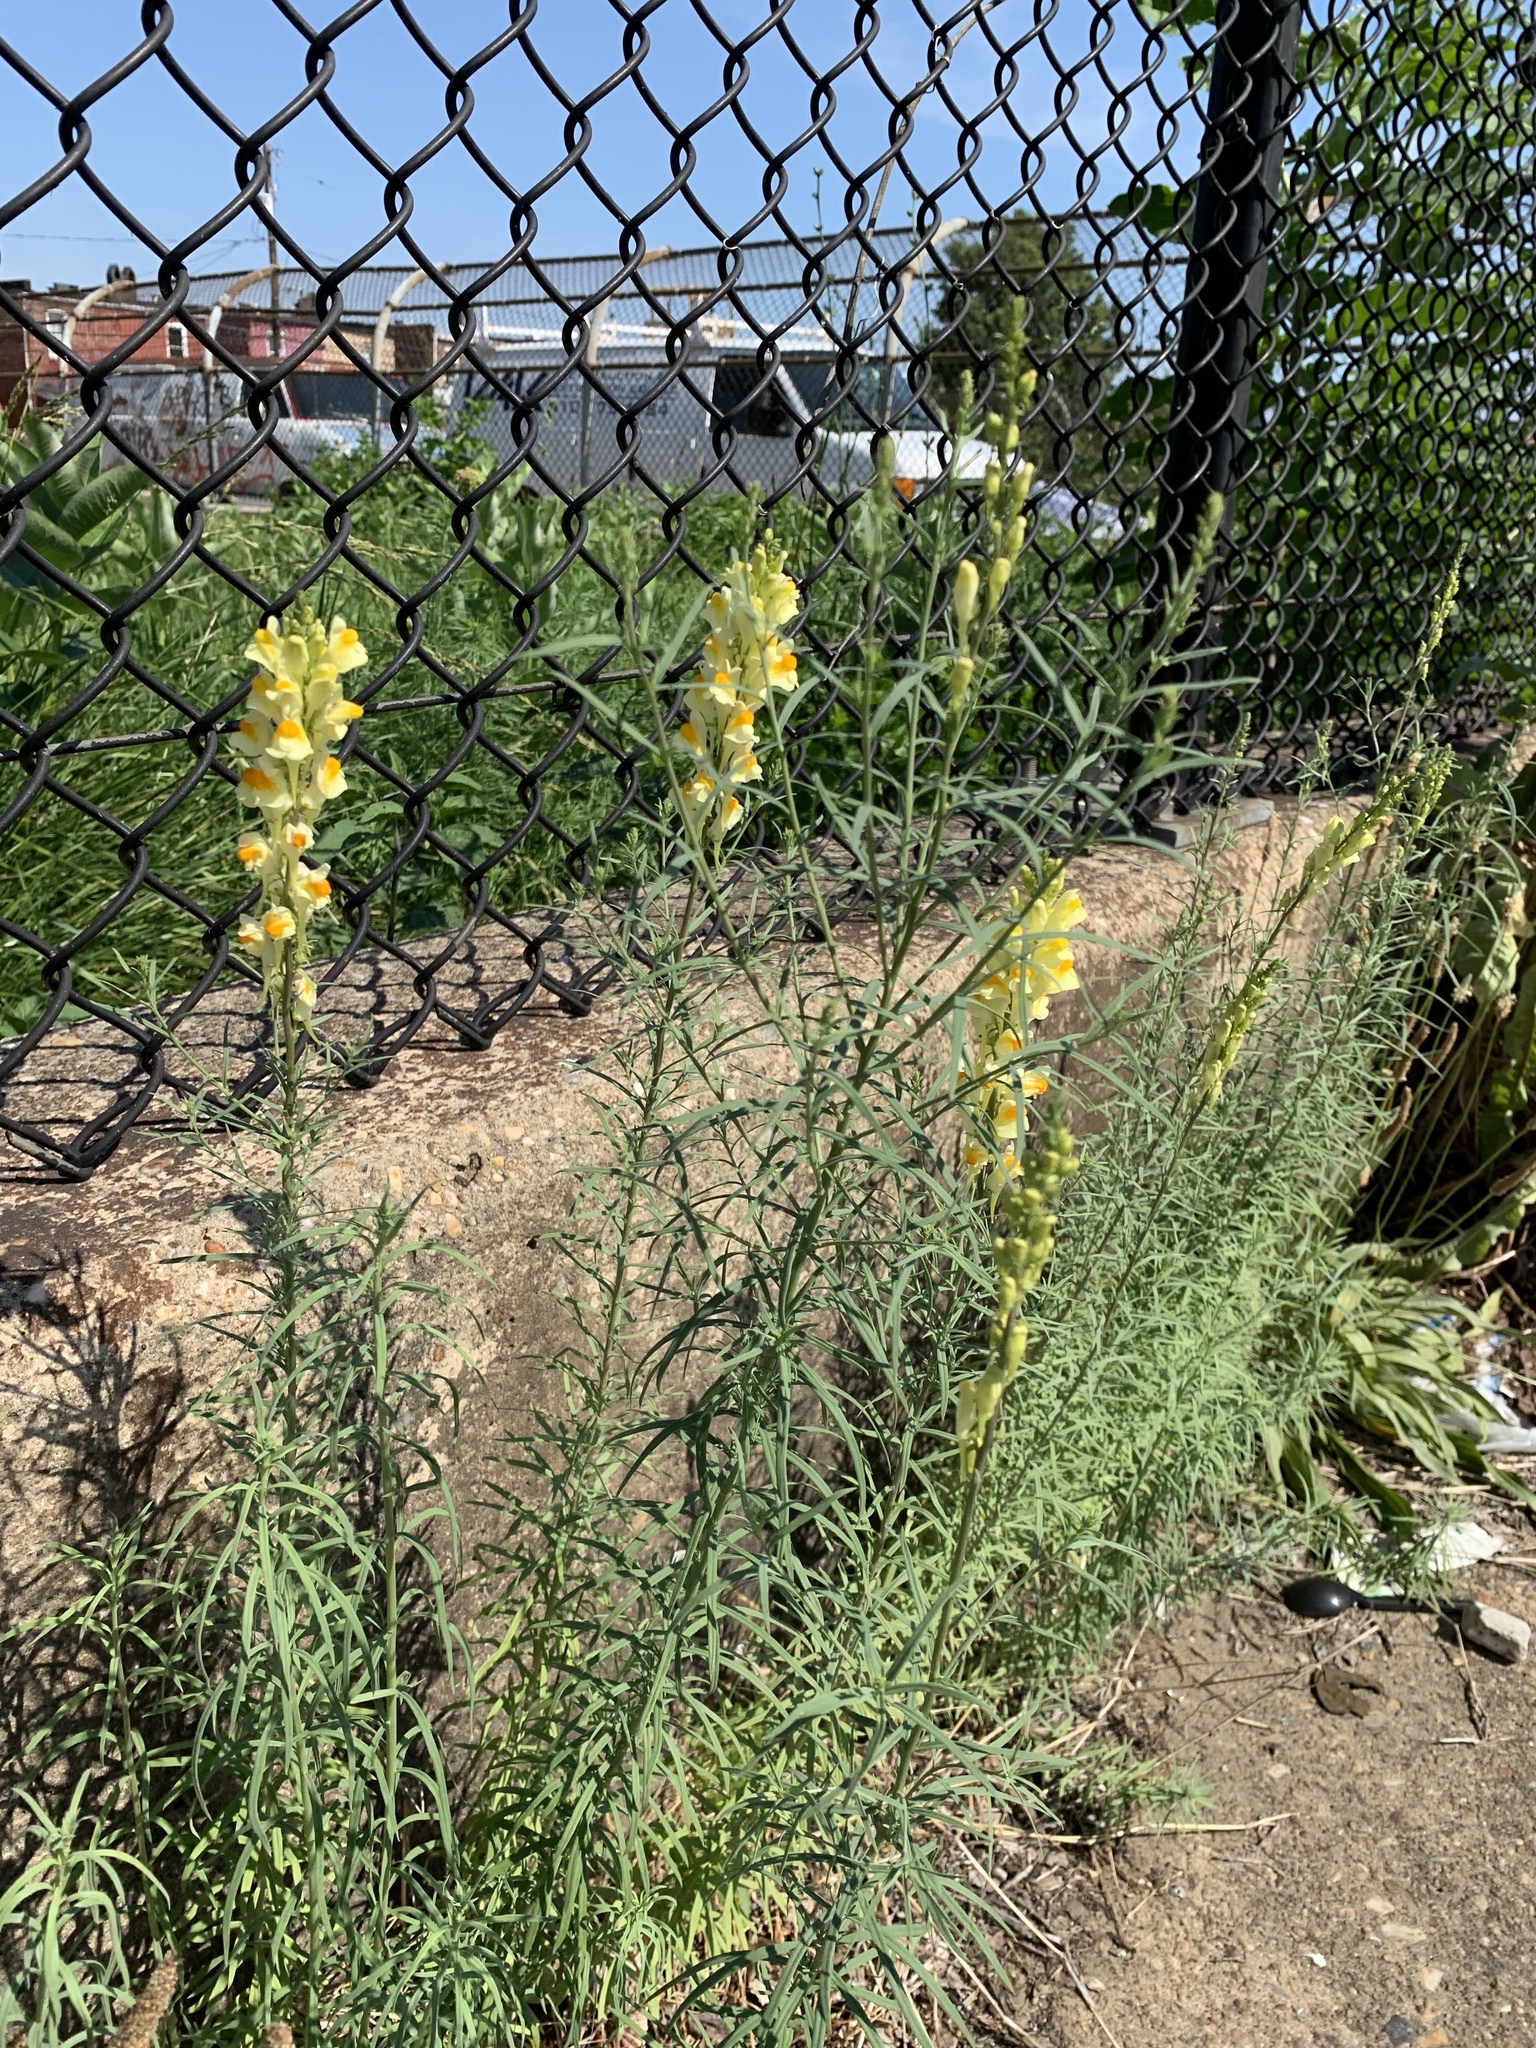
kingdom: Plantae
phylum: Tracheophyta
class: Magnoliopsida
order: Lamiales
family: Plantaginaceae
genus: Linaria
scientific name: Linaria vulgaris
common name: Butter and eggs
